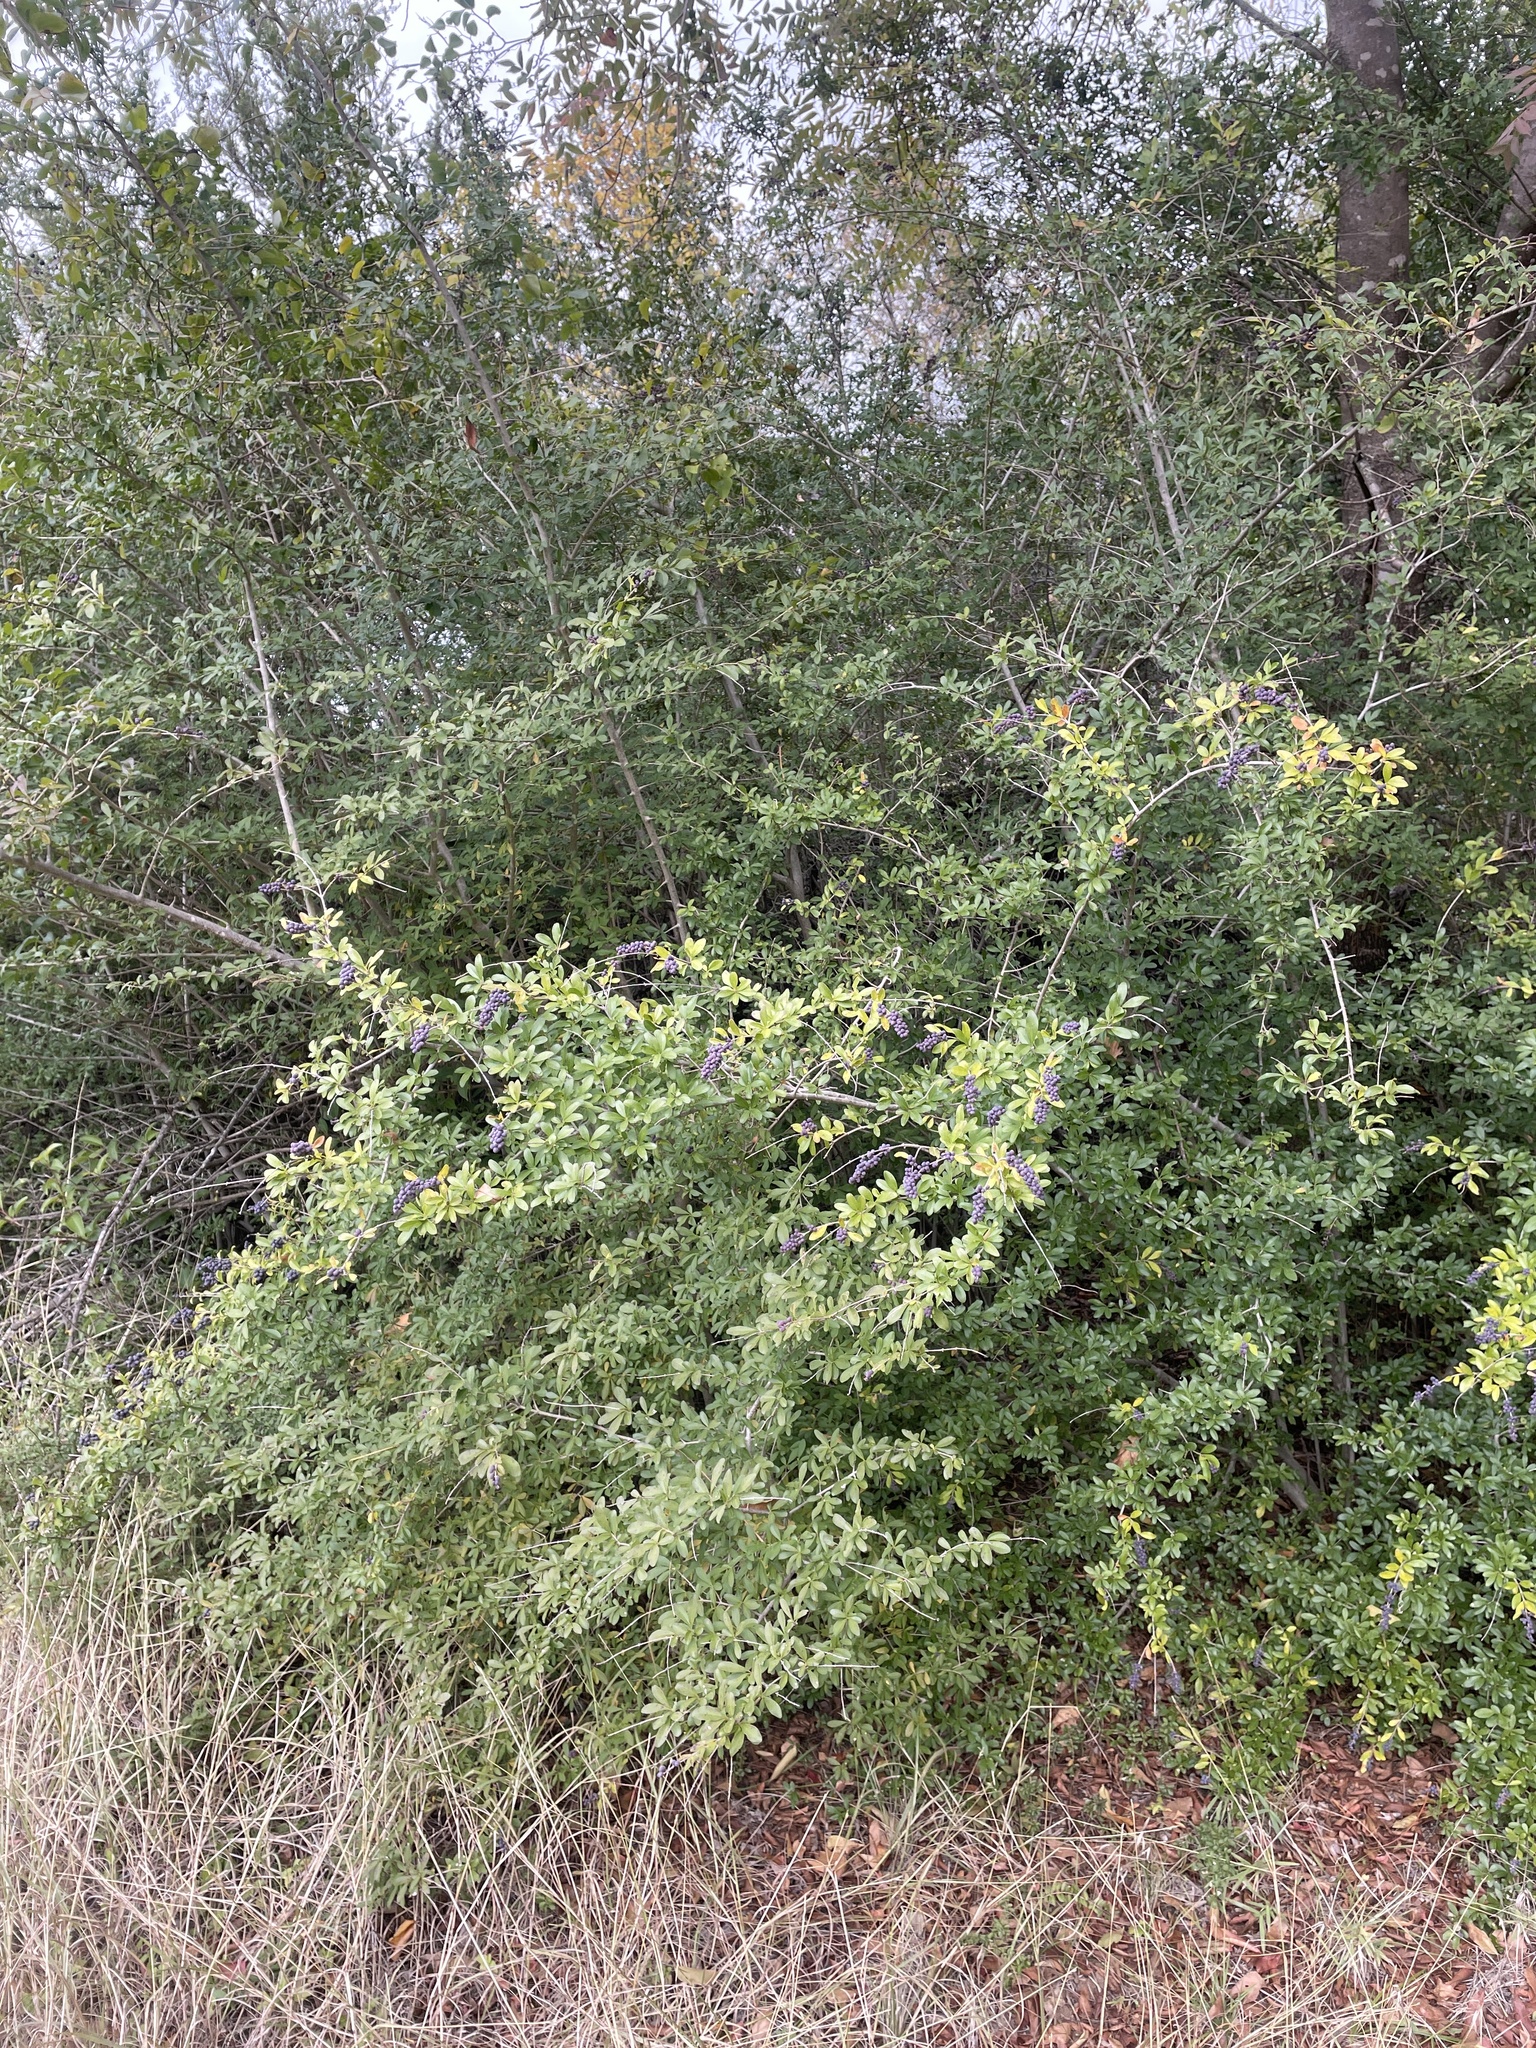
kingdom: Plantae
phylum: Tracheophyta
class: Magnoliopsida
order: Lamiales
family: Oleaceae
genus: Ligustrum
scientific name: Ligustrum quihoui
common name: Waxyleaf privet
